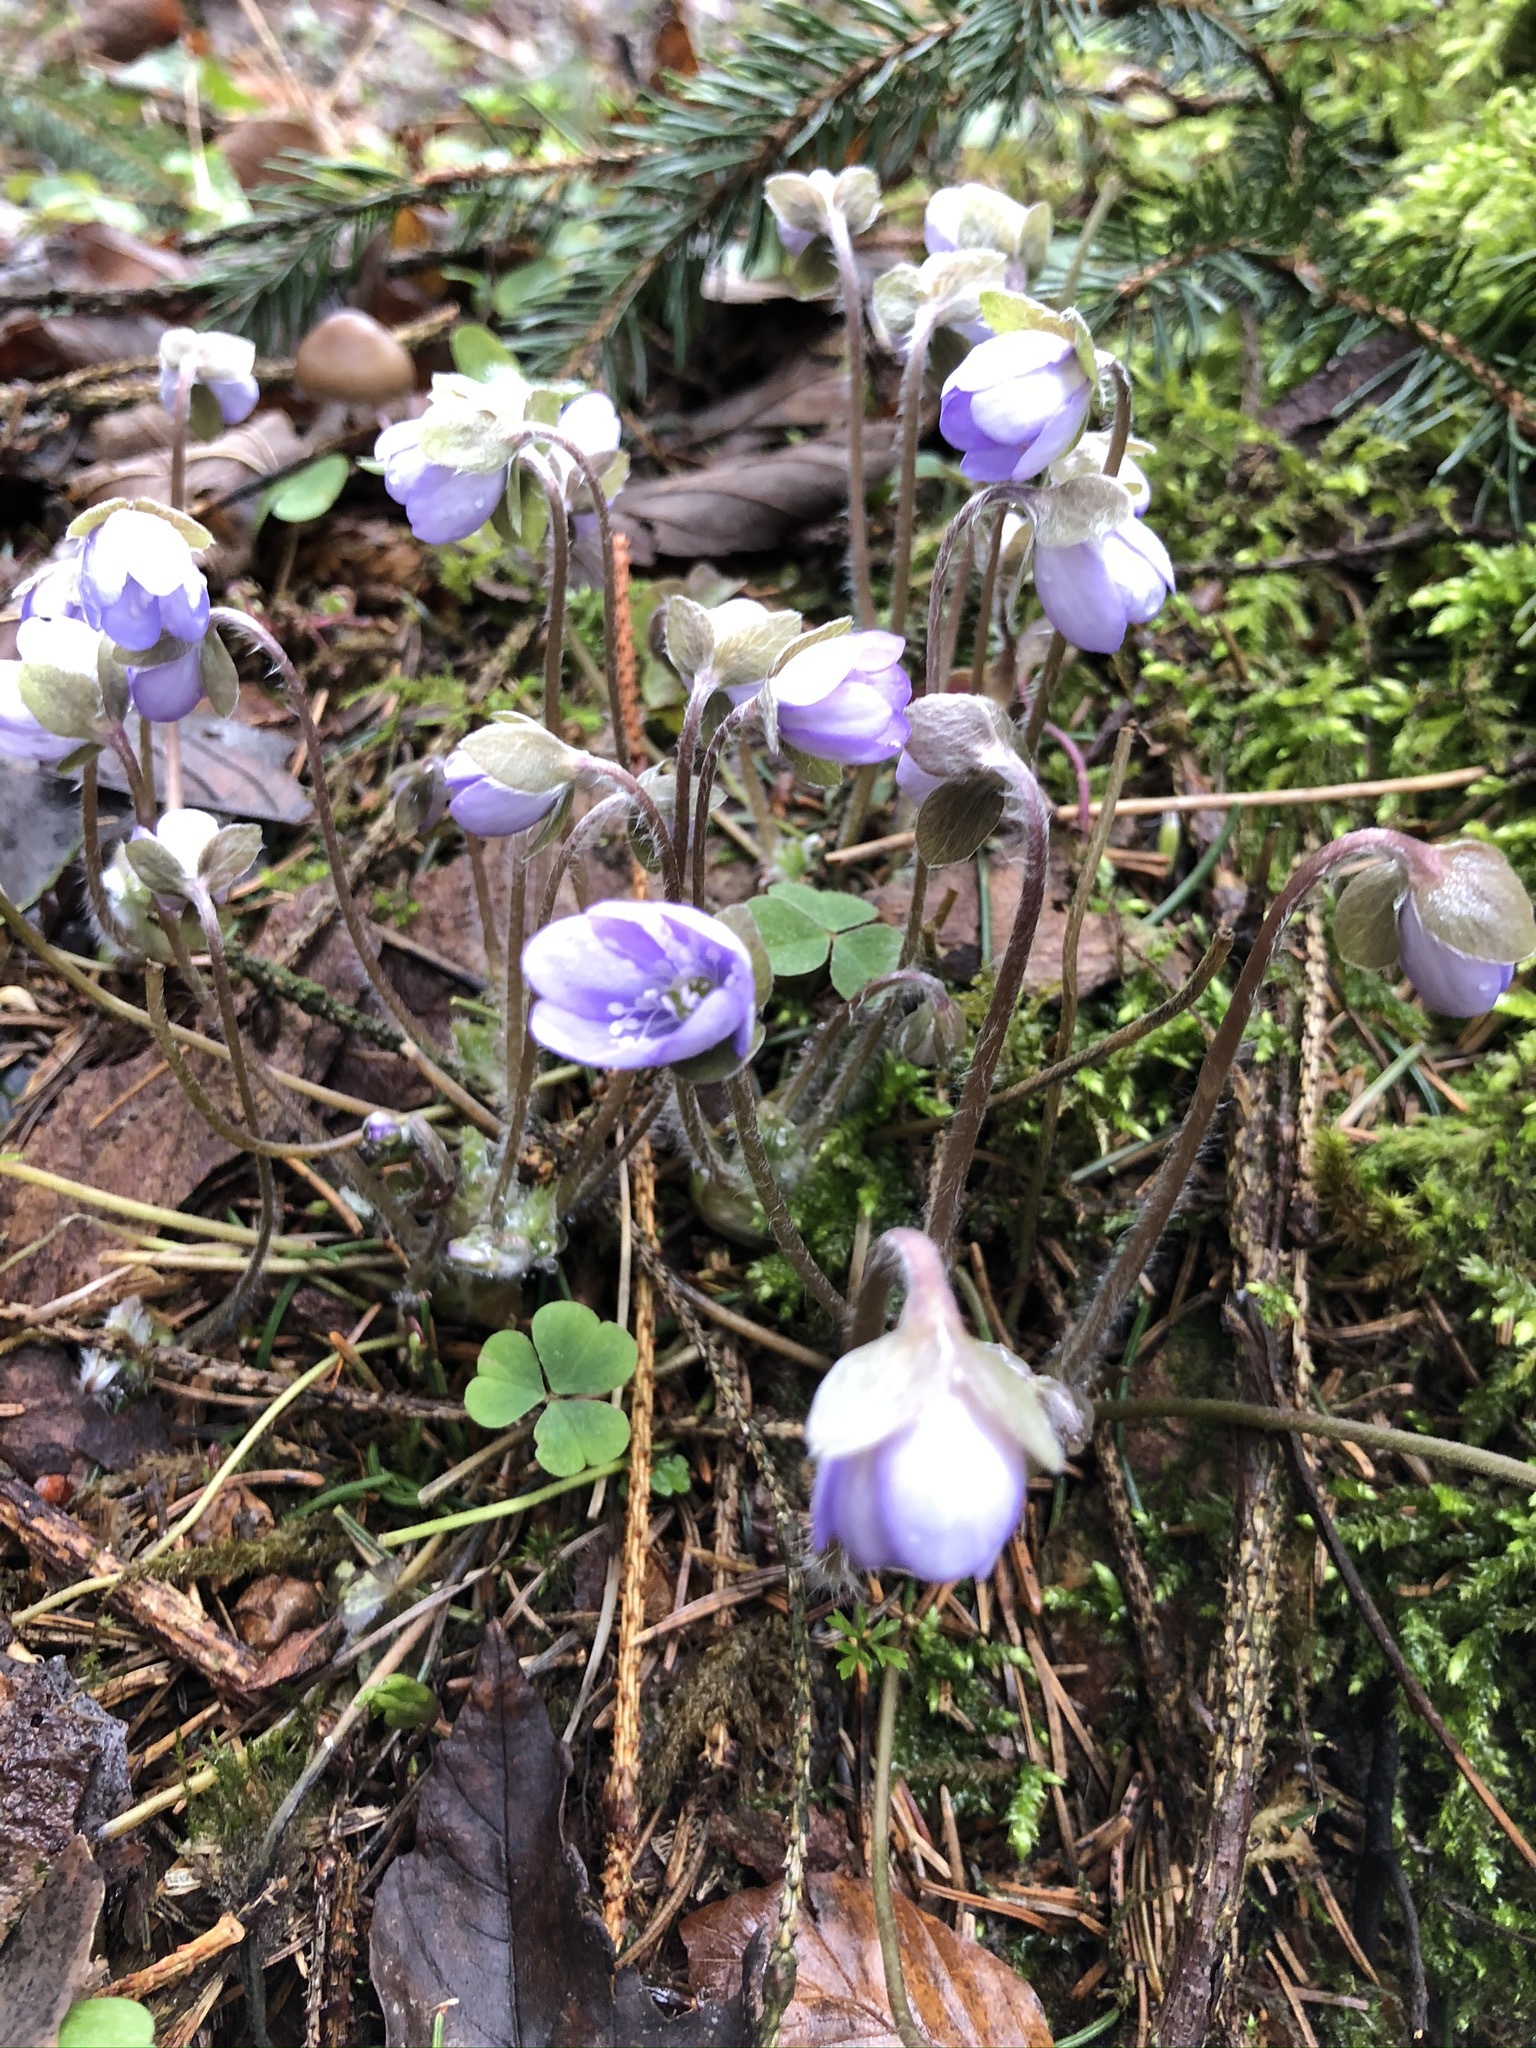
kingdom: Plantae
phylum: Tracheophyta
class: Magnoliopsida
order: Ranunculales
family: Ranunculaceae
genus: Hepatica
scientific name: Hepatica nobilis
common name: Liverleaf
